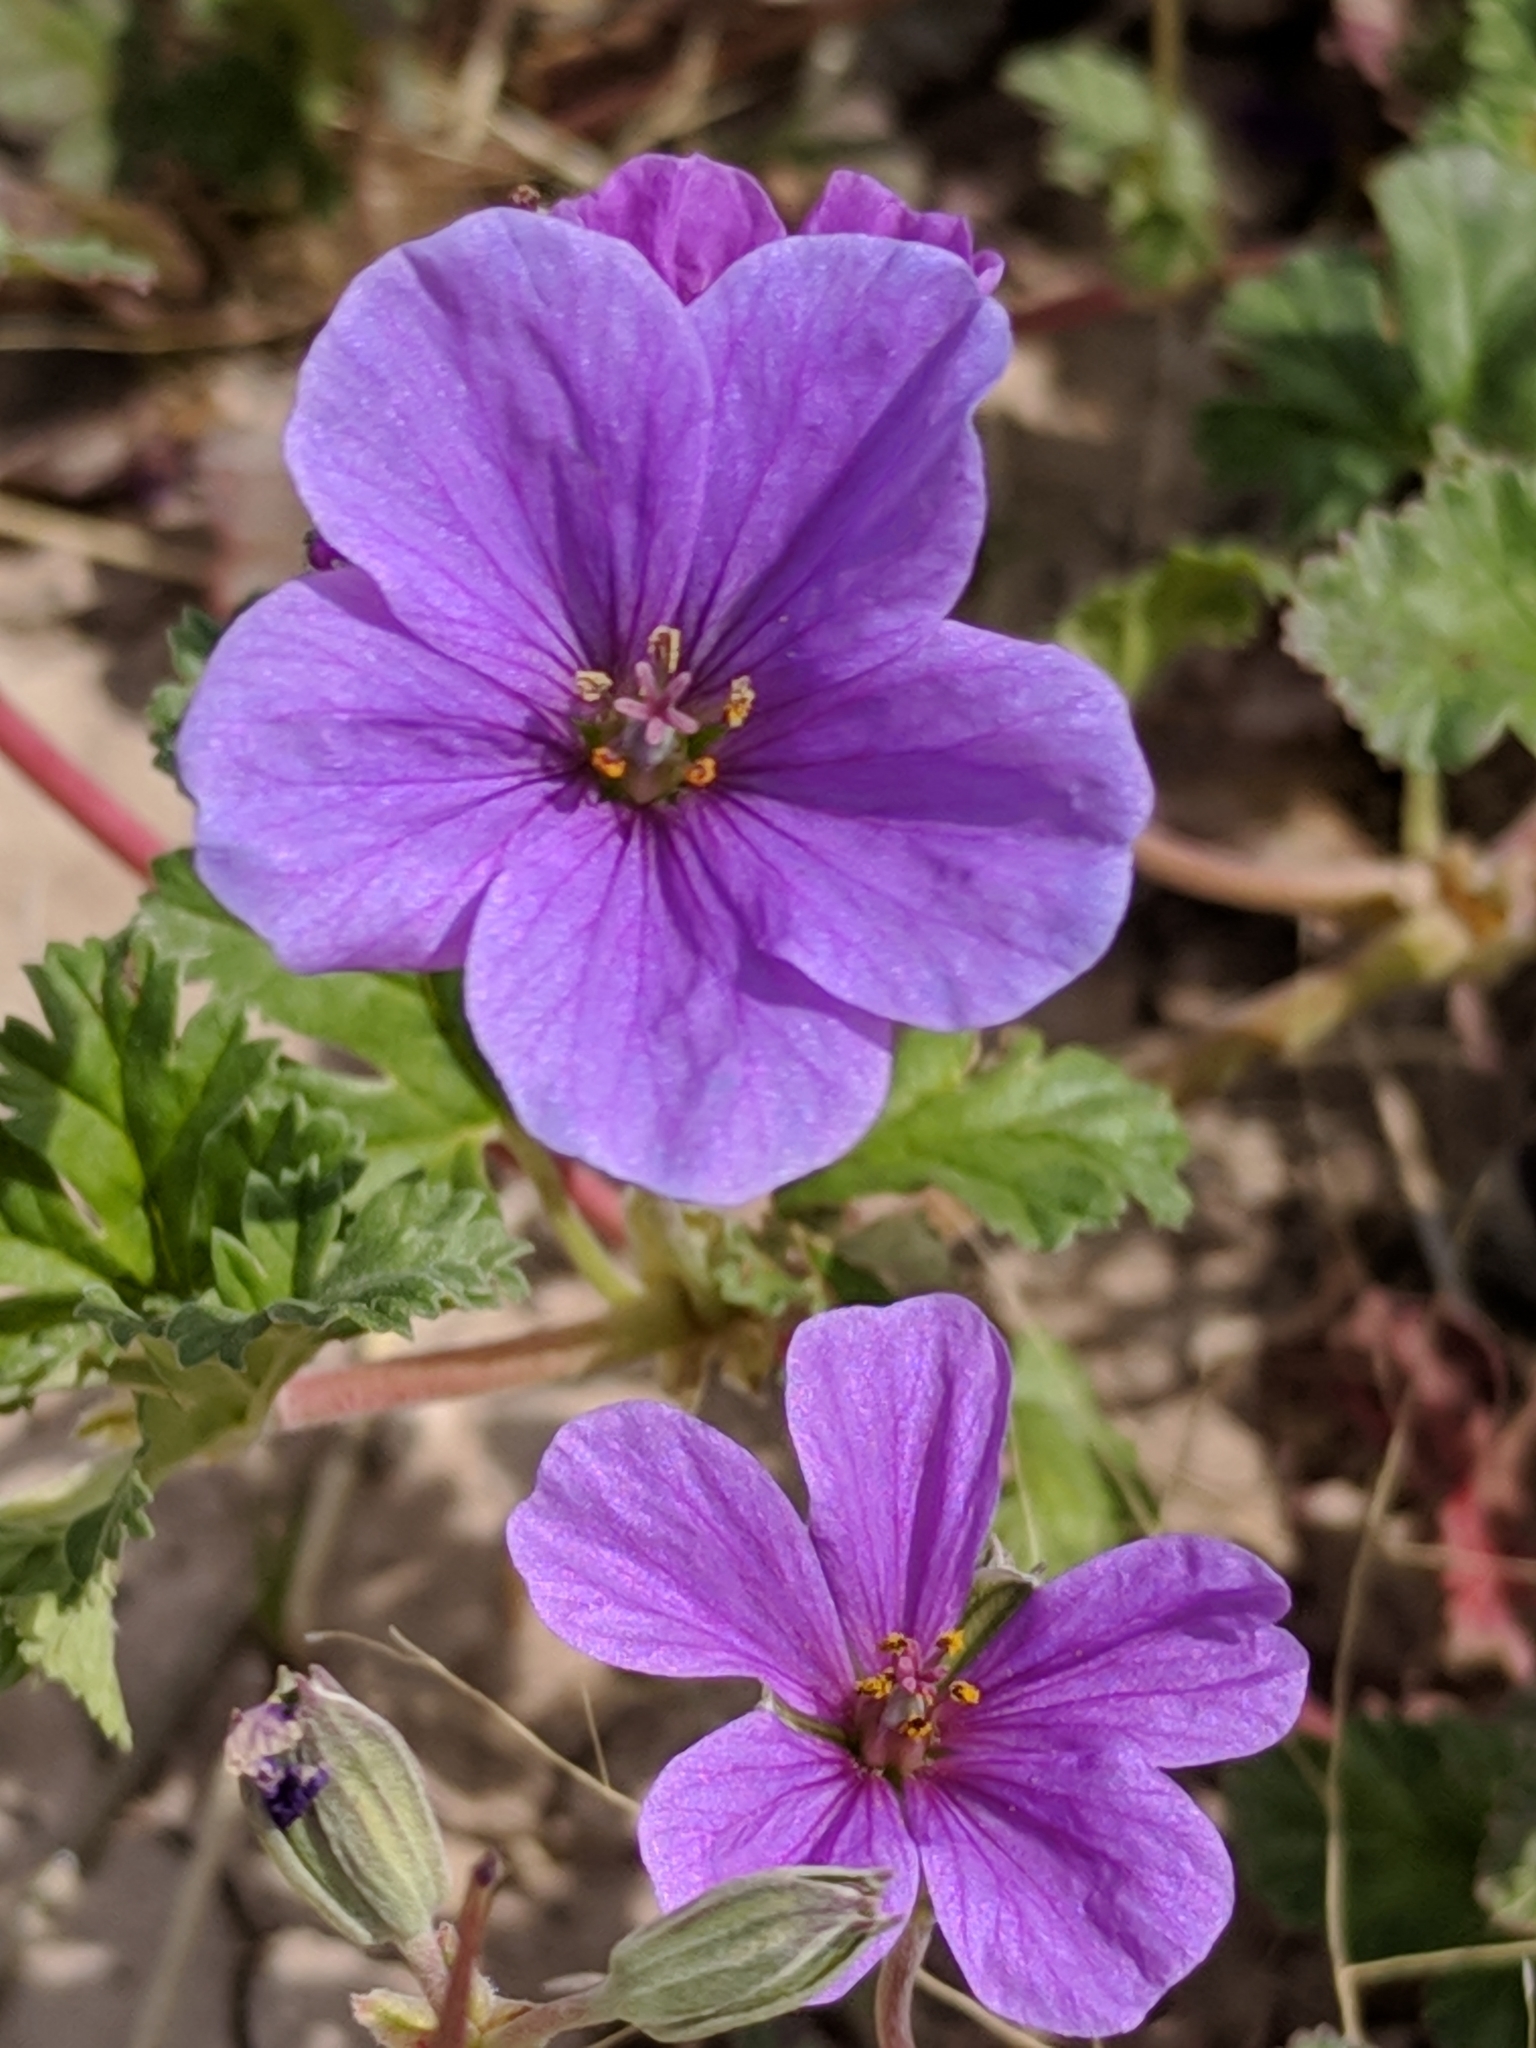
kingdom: Plantae
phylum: Tracheophyta
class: Magnoliopsida
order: Geraniales
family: Geraniaceae
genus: Erodium
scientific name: Erodium texanum
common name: Texas stork's-bill
